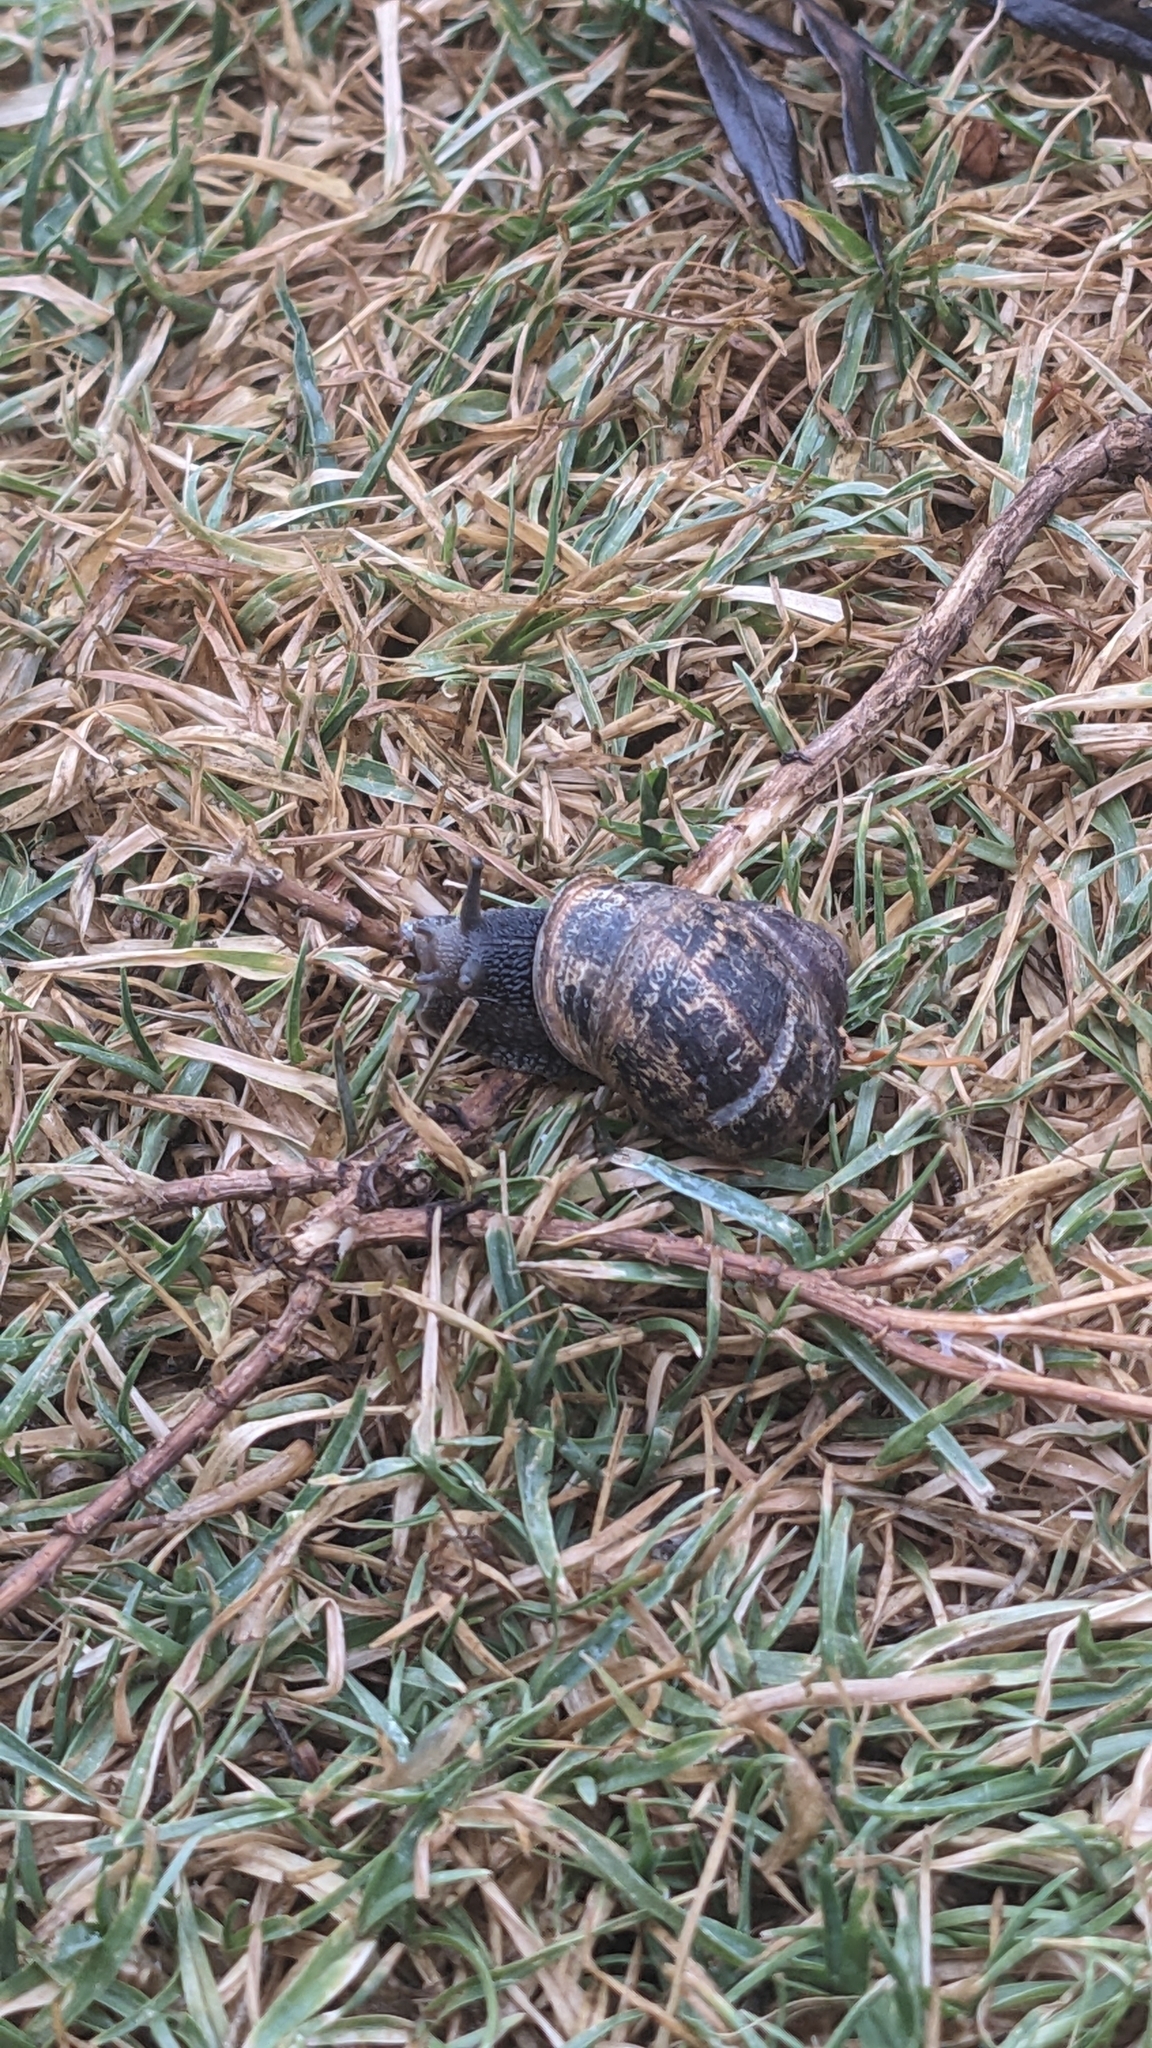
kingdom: Animalia
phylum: Mollusca
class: Gastropoda
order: Stylommatophora
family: Helicidae
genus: Cornu
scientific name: Cornu aspersum
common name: Brown garden snail
